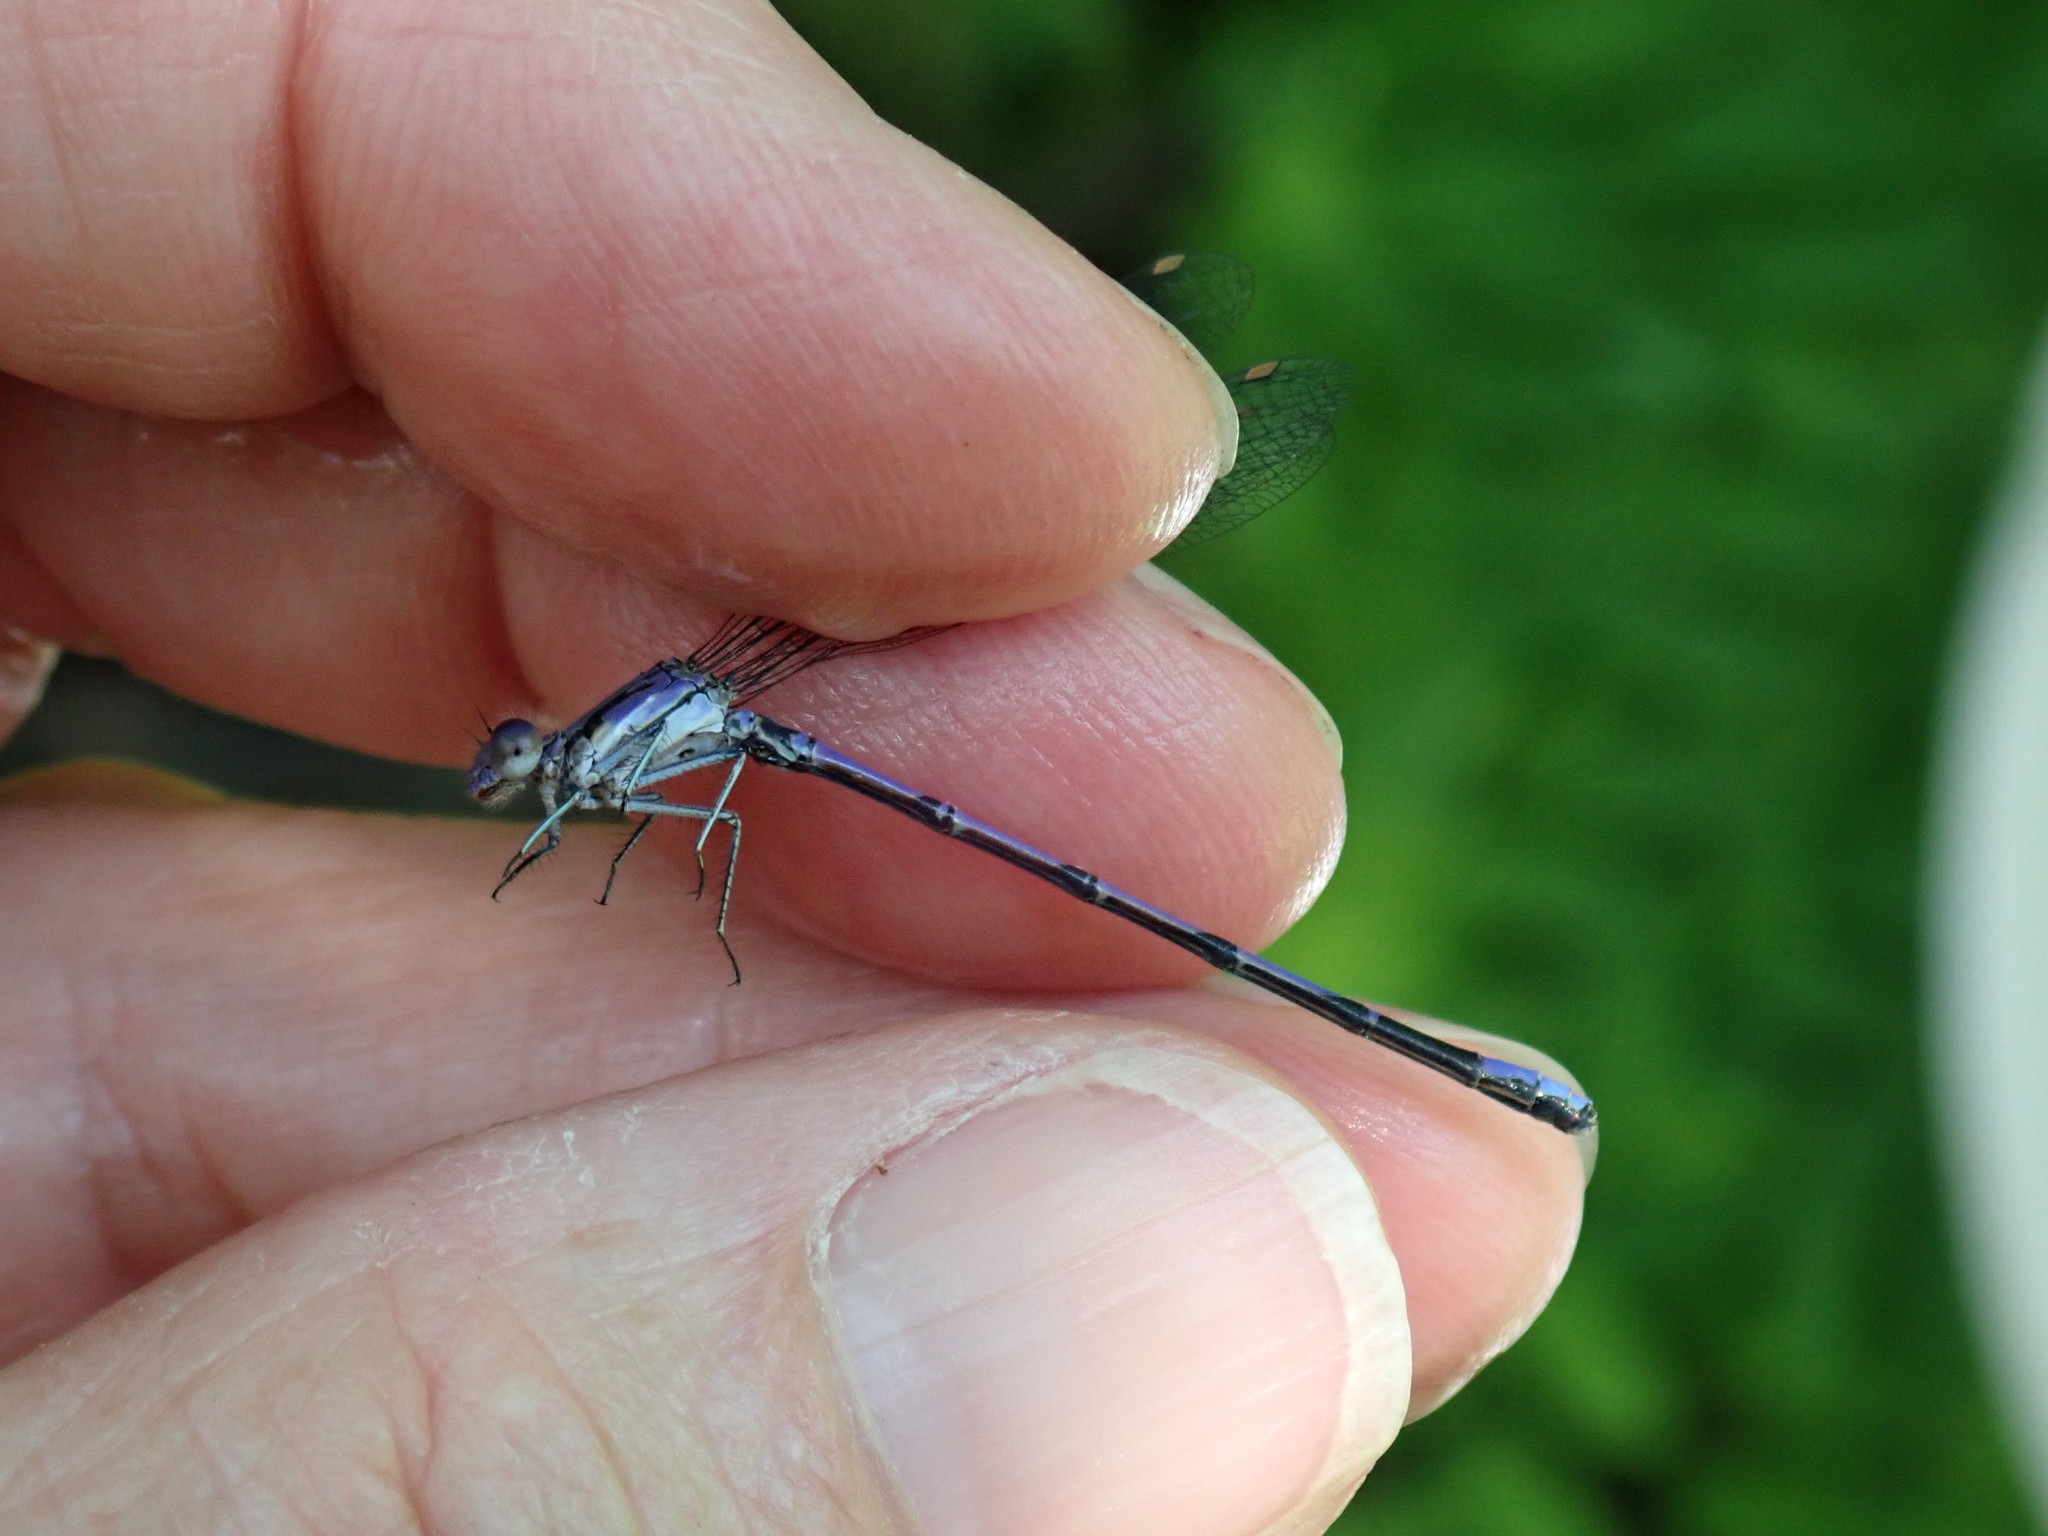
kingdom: Animalia
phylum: Arthropoda
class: Insecta
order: Odonata
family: Coenagrionidae
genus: Argia
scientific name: Argia fumipennis
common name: Variable dancer
